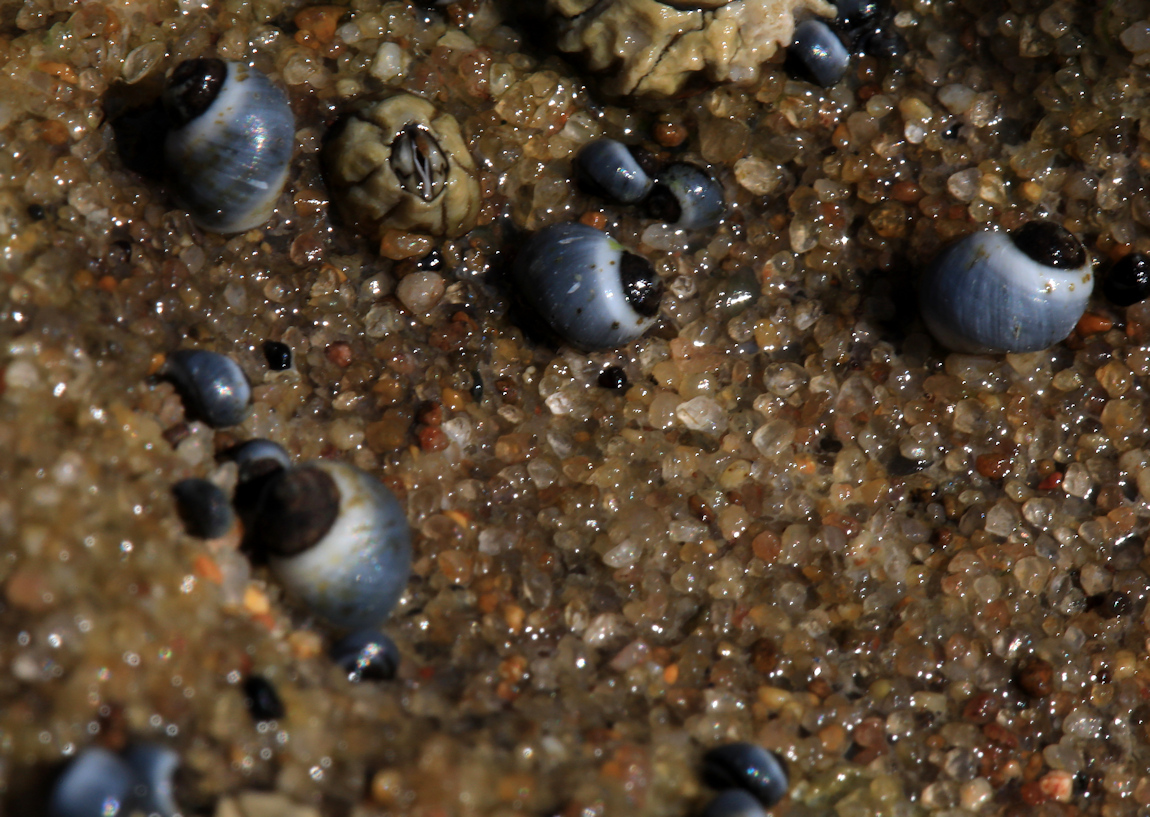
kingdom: Animalia
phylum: Mollusca
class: Gastropoda
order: Littorinimorpha
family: Littorinidae
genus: Afrolittorina
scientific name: Afrolittorina africana
